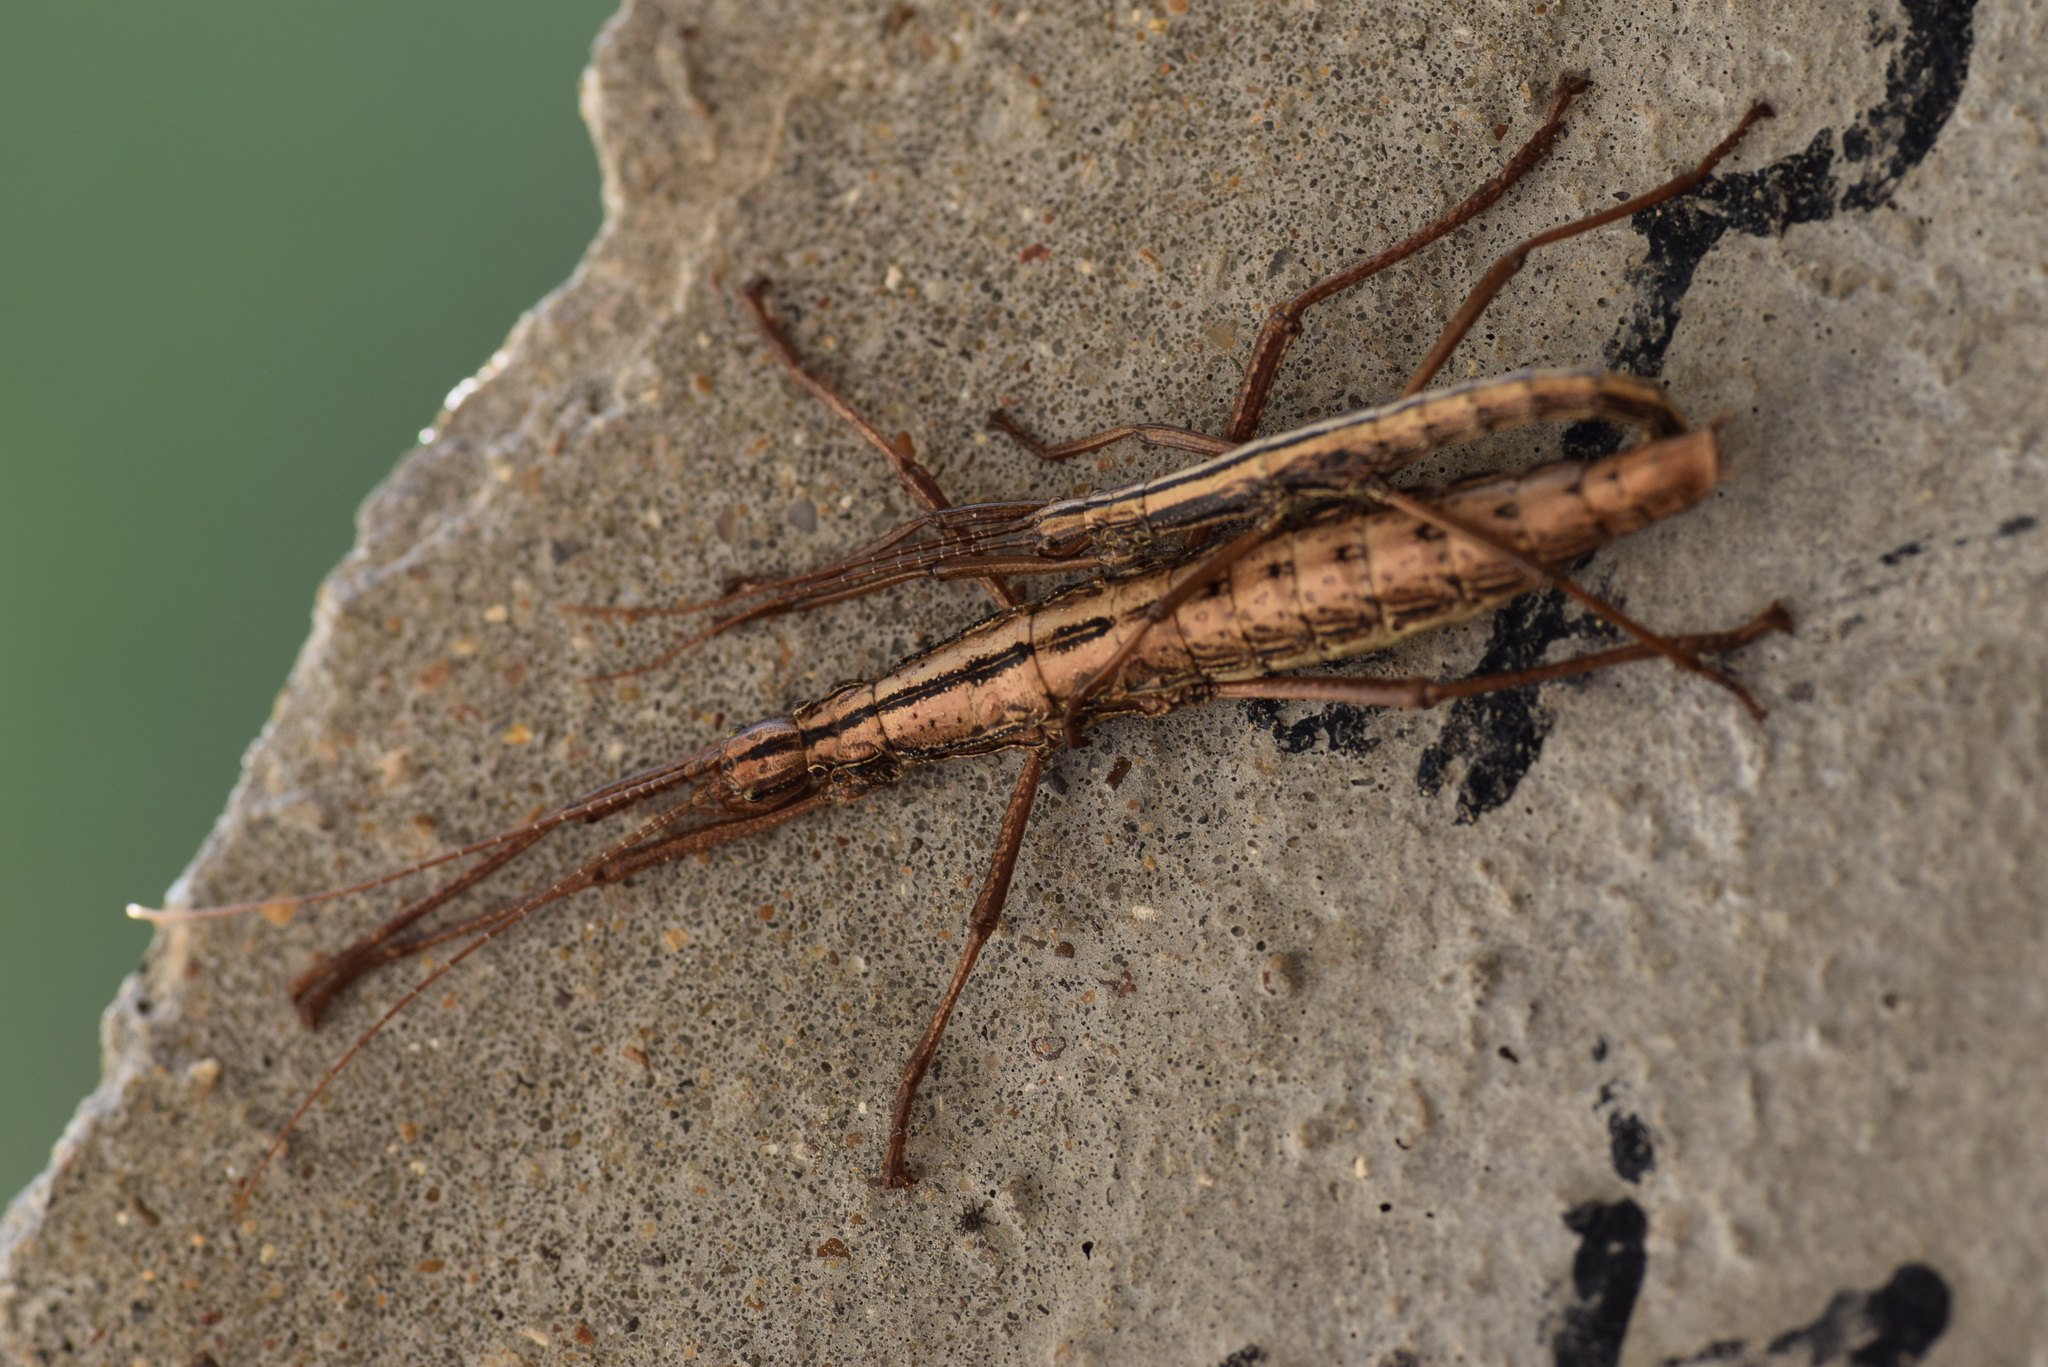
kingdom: Animalia
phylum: Arthropoda
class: Insecta
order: Phasmida
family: Pseudophasmatidae
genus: Anisomorpha
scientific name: Anisomorpha buprestoides
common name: Florida stick insect
